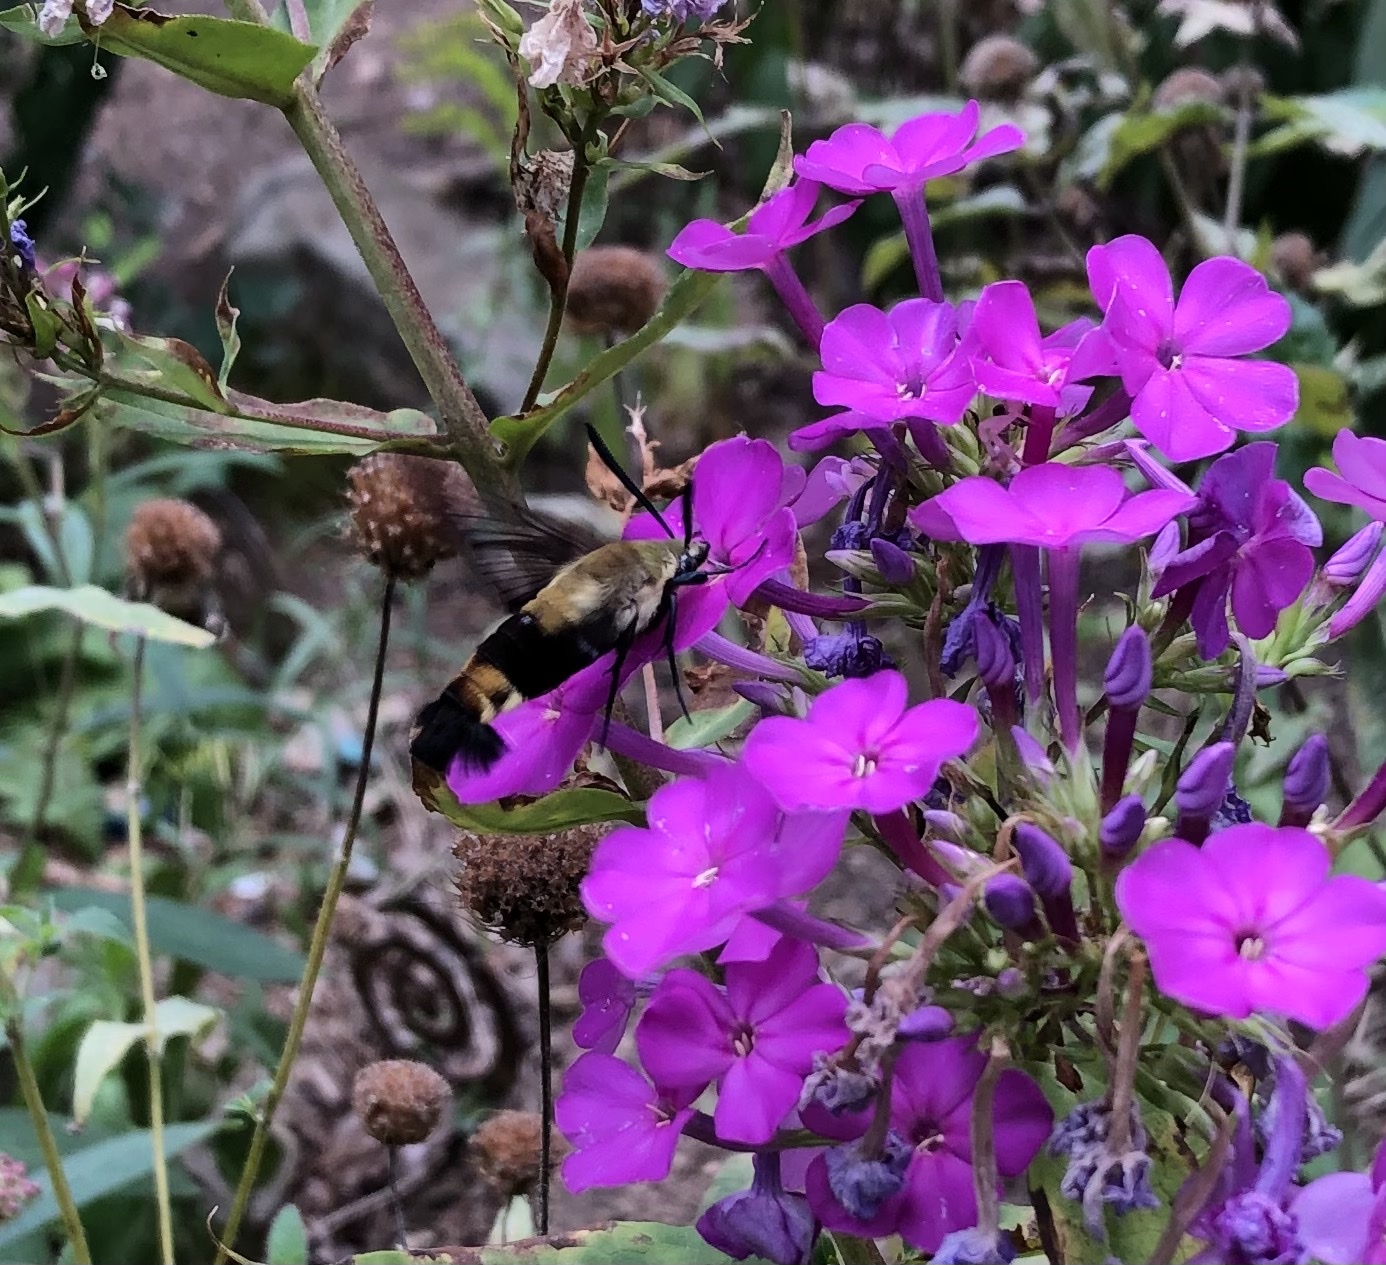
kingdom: Animalia
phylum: Arthropoda
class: Insecta
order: Lepidoptera
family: Sphingidae
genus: Hemaris
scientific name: Hemaris diffinis
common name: Bumblebee moth
